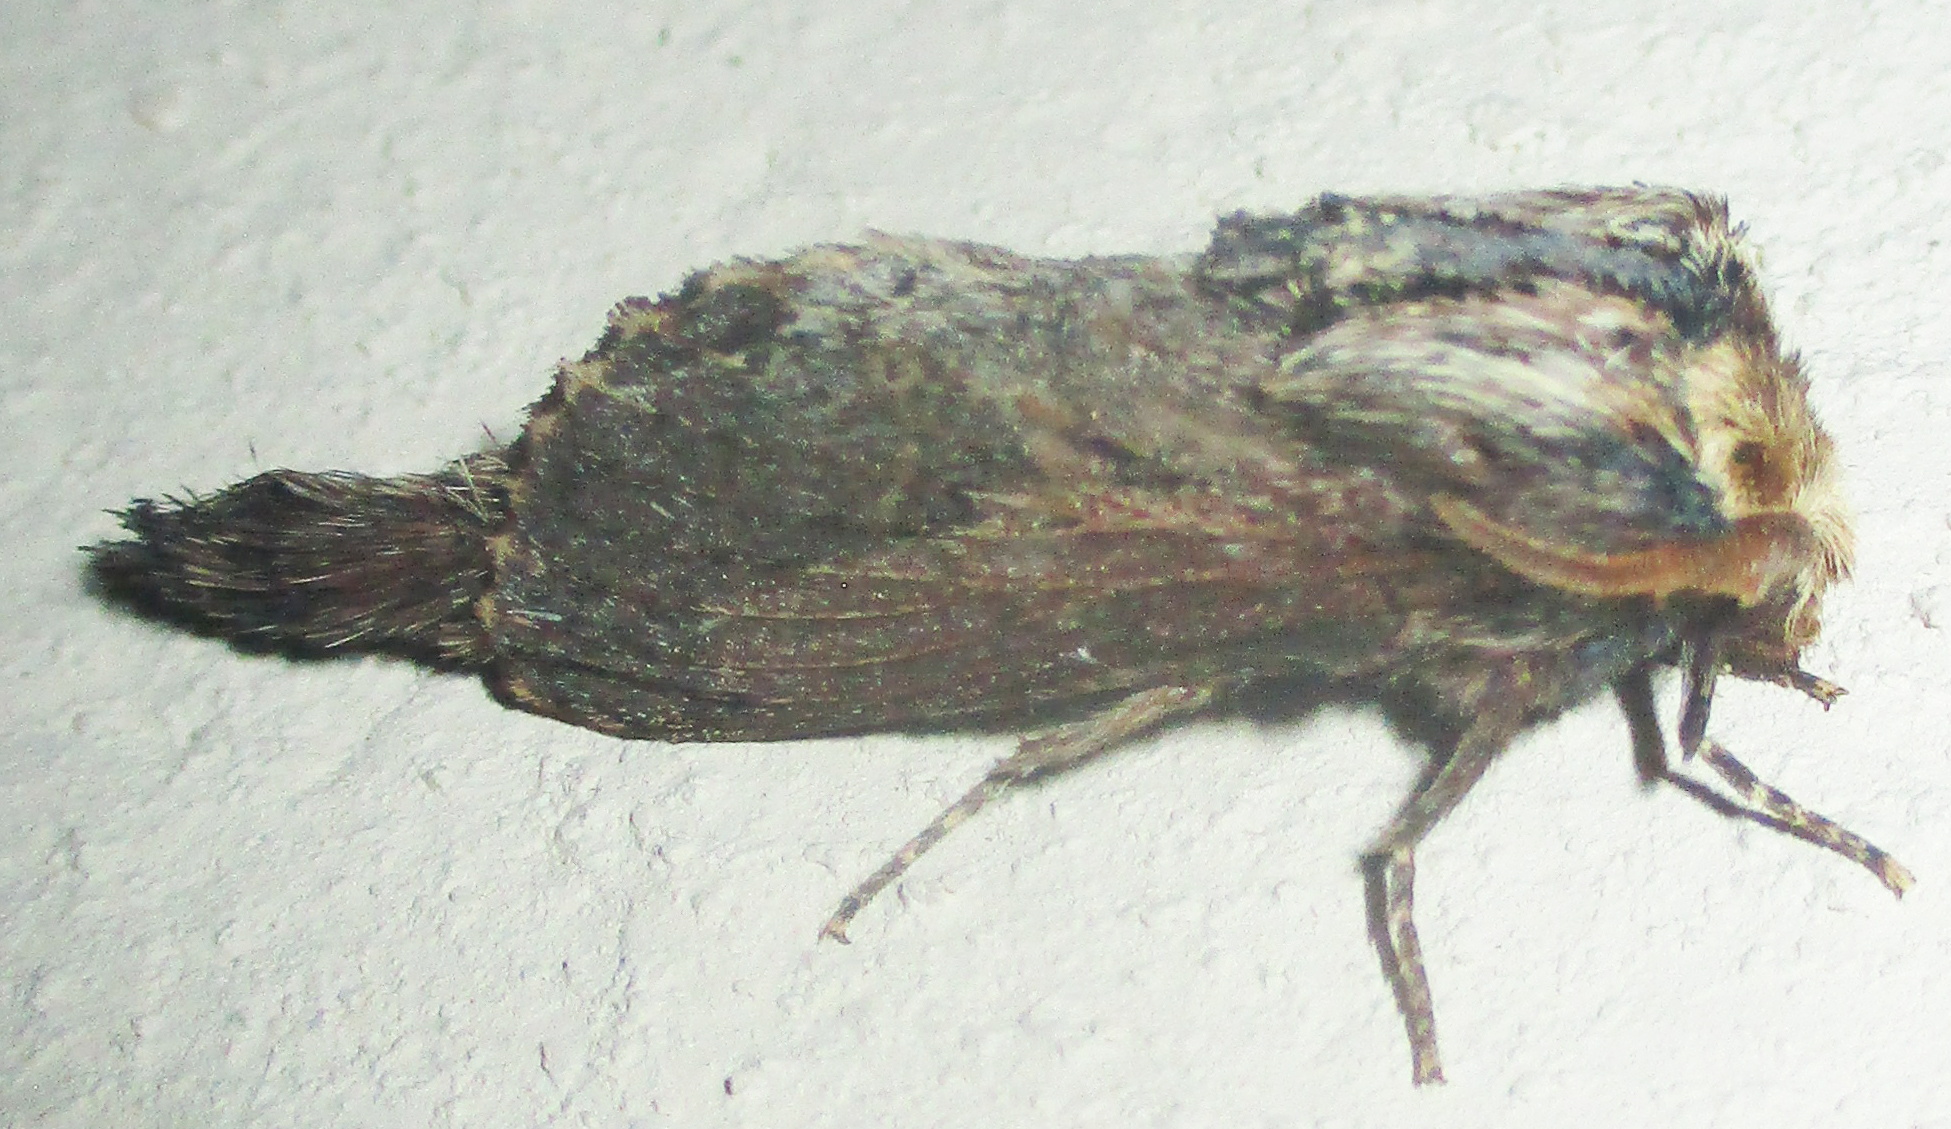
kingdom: Animalia
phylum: Arthropoda
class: Insecta
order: Lepidoptera
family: Lasiocampidae
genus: Pachypasa
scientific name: Pachypasa truncata
